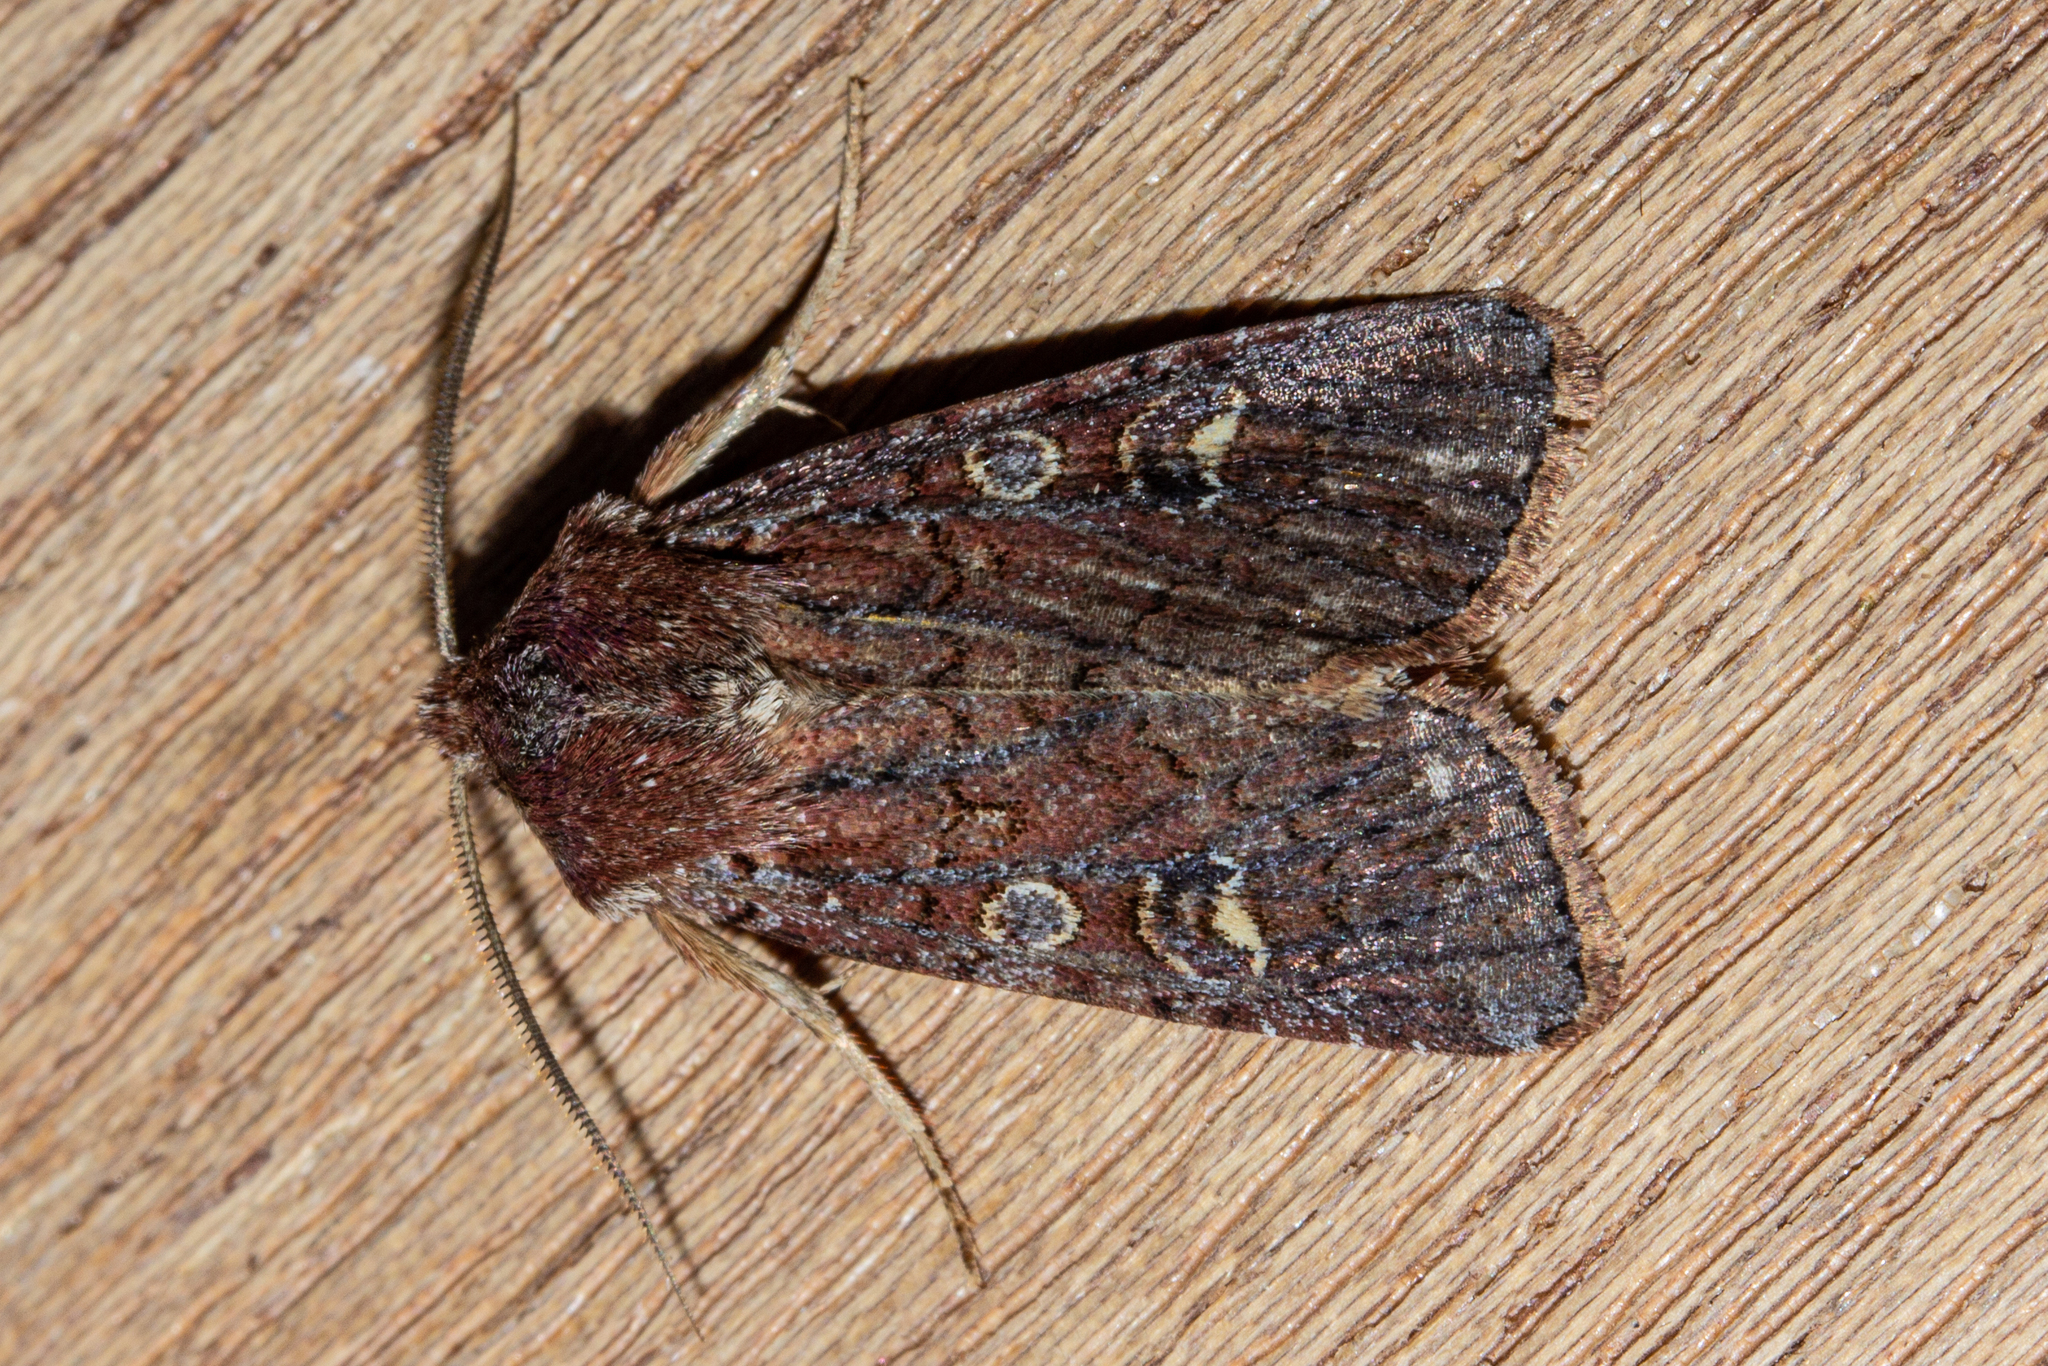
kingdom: Animalia
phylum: Arthropoda
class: Insecta
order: Lepidoptera
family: Noctuidae
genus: Ichneutica
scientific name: Ichneutica agorastis
